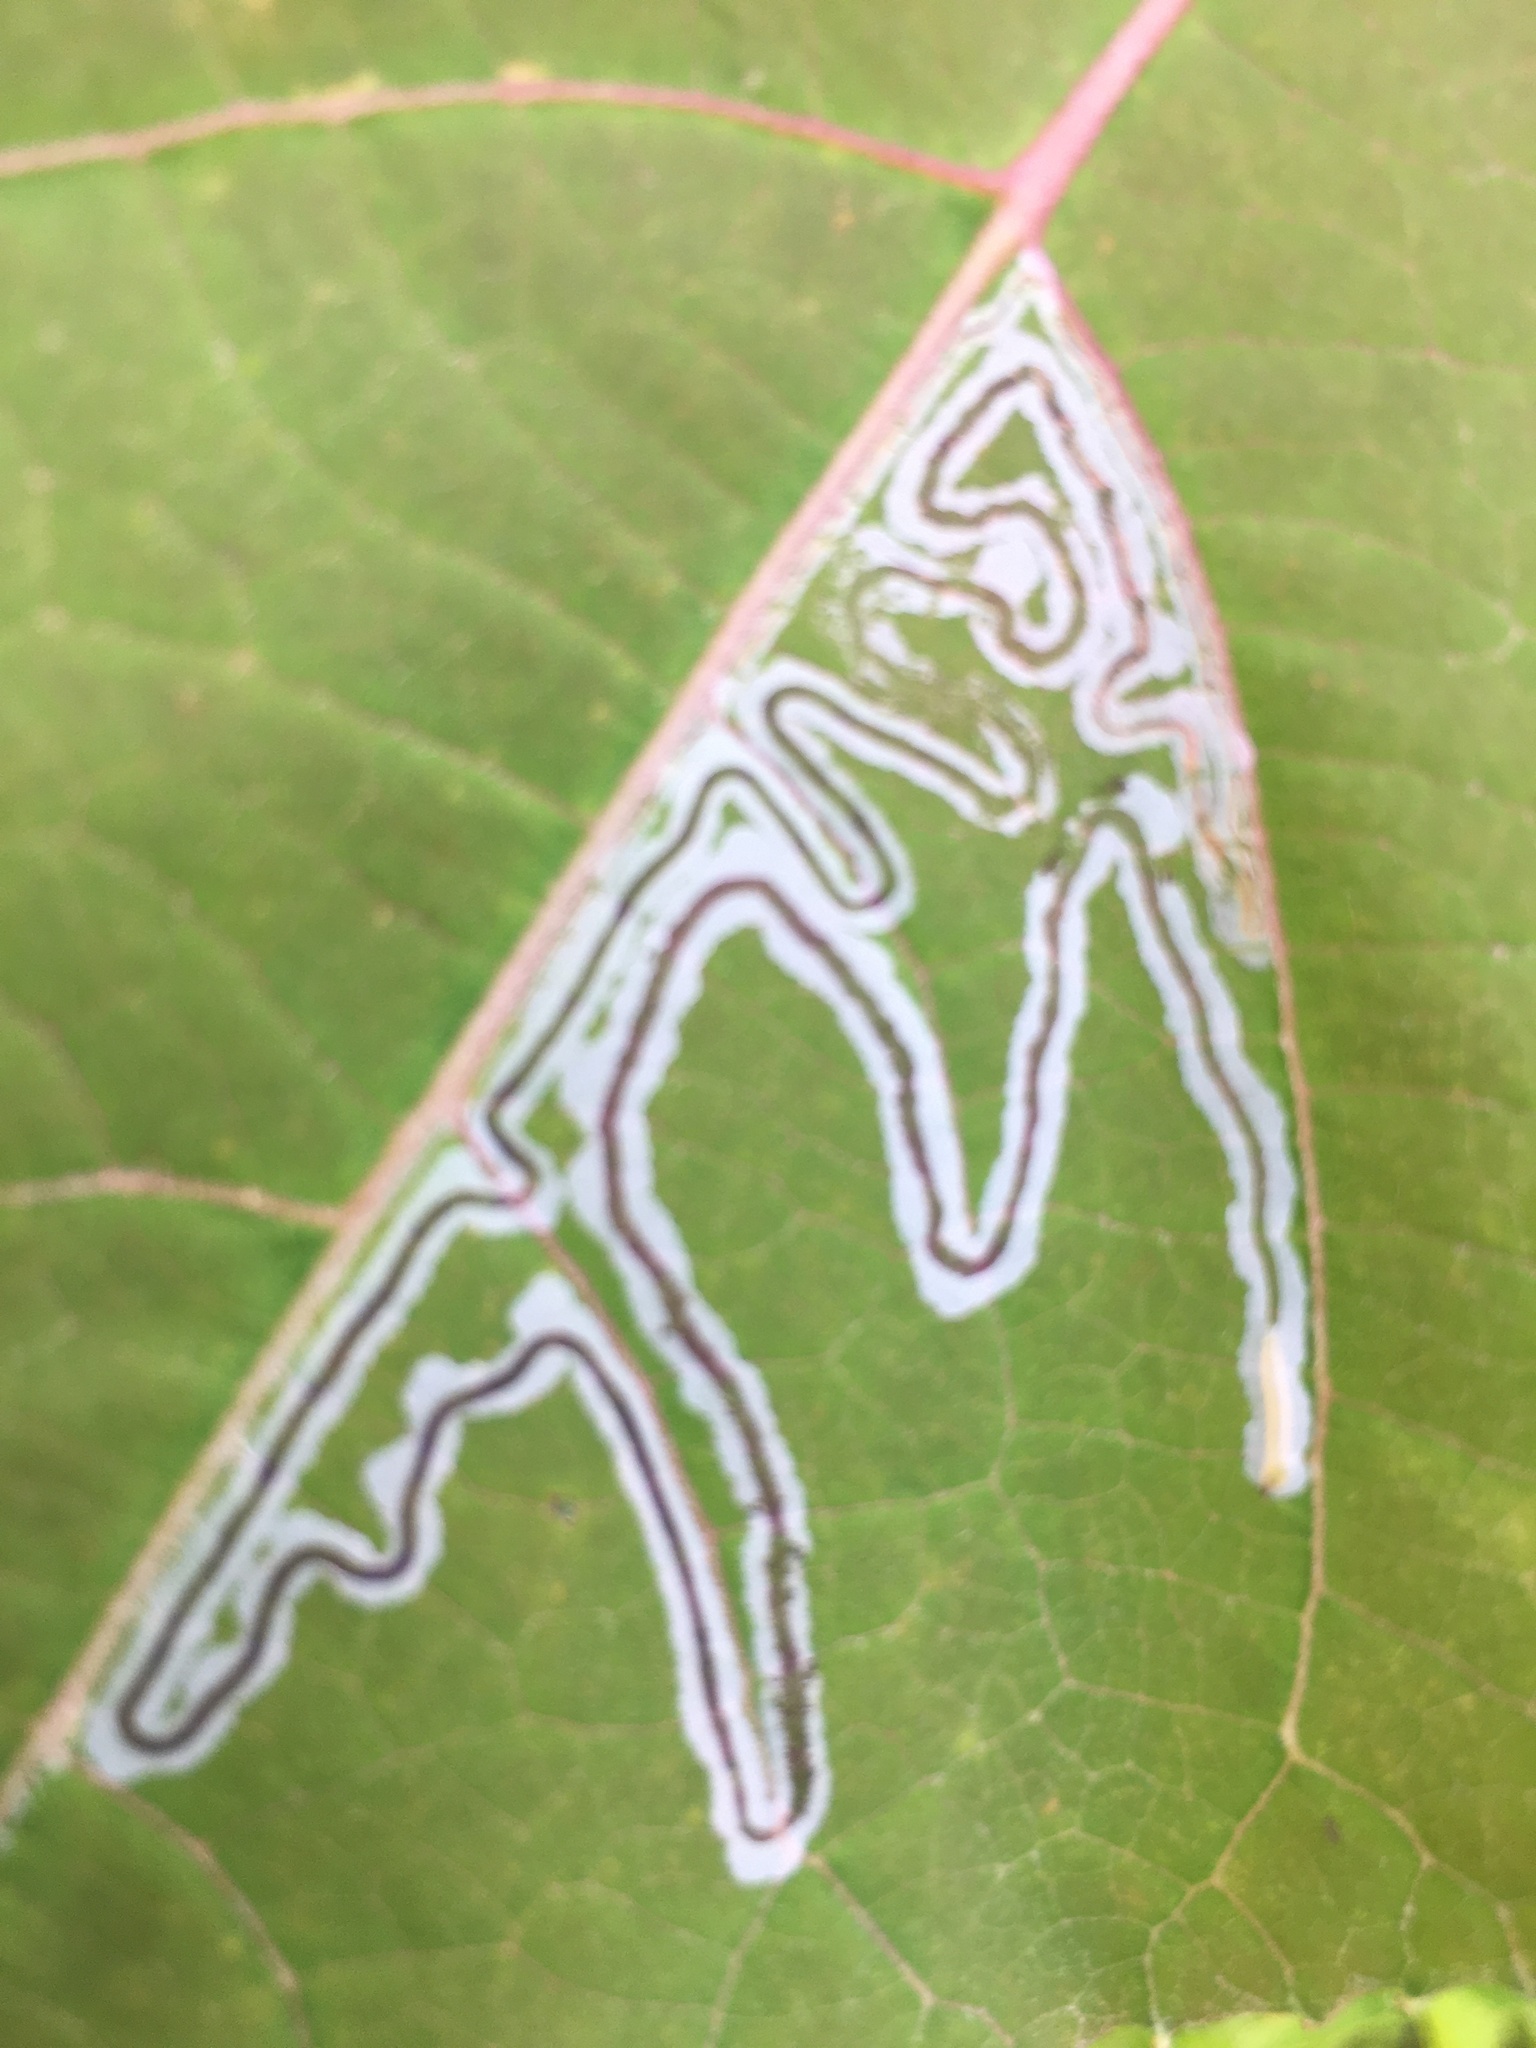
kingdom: Animalia
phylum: Arthropoda
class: Insecta
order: Lepidoptera
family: Gracillariidae
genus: Phyllocnistis
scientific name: Phyllocnistis populiella
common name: Aspen serpentine leafminer moth
